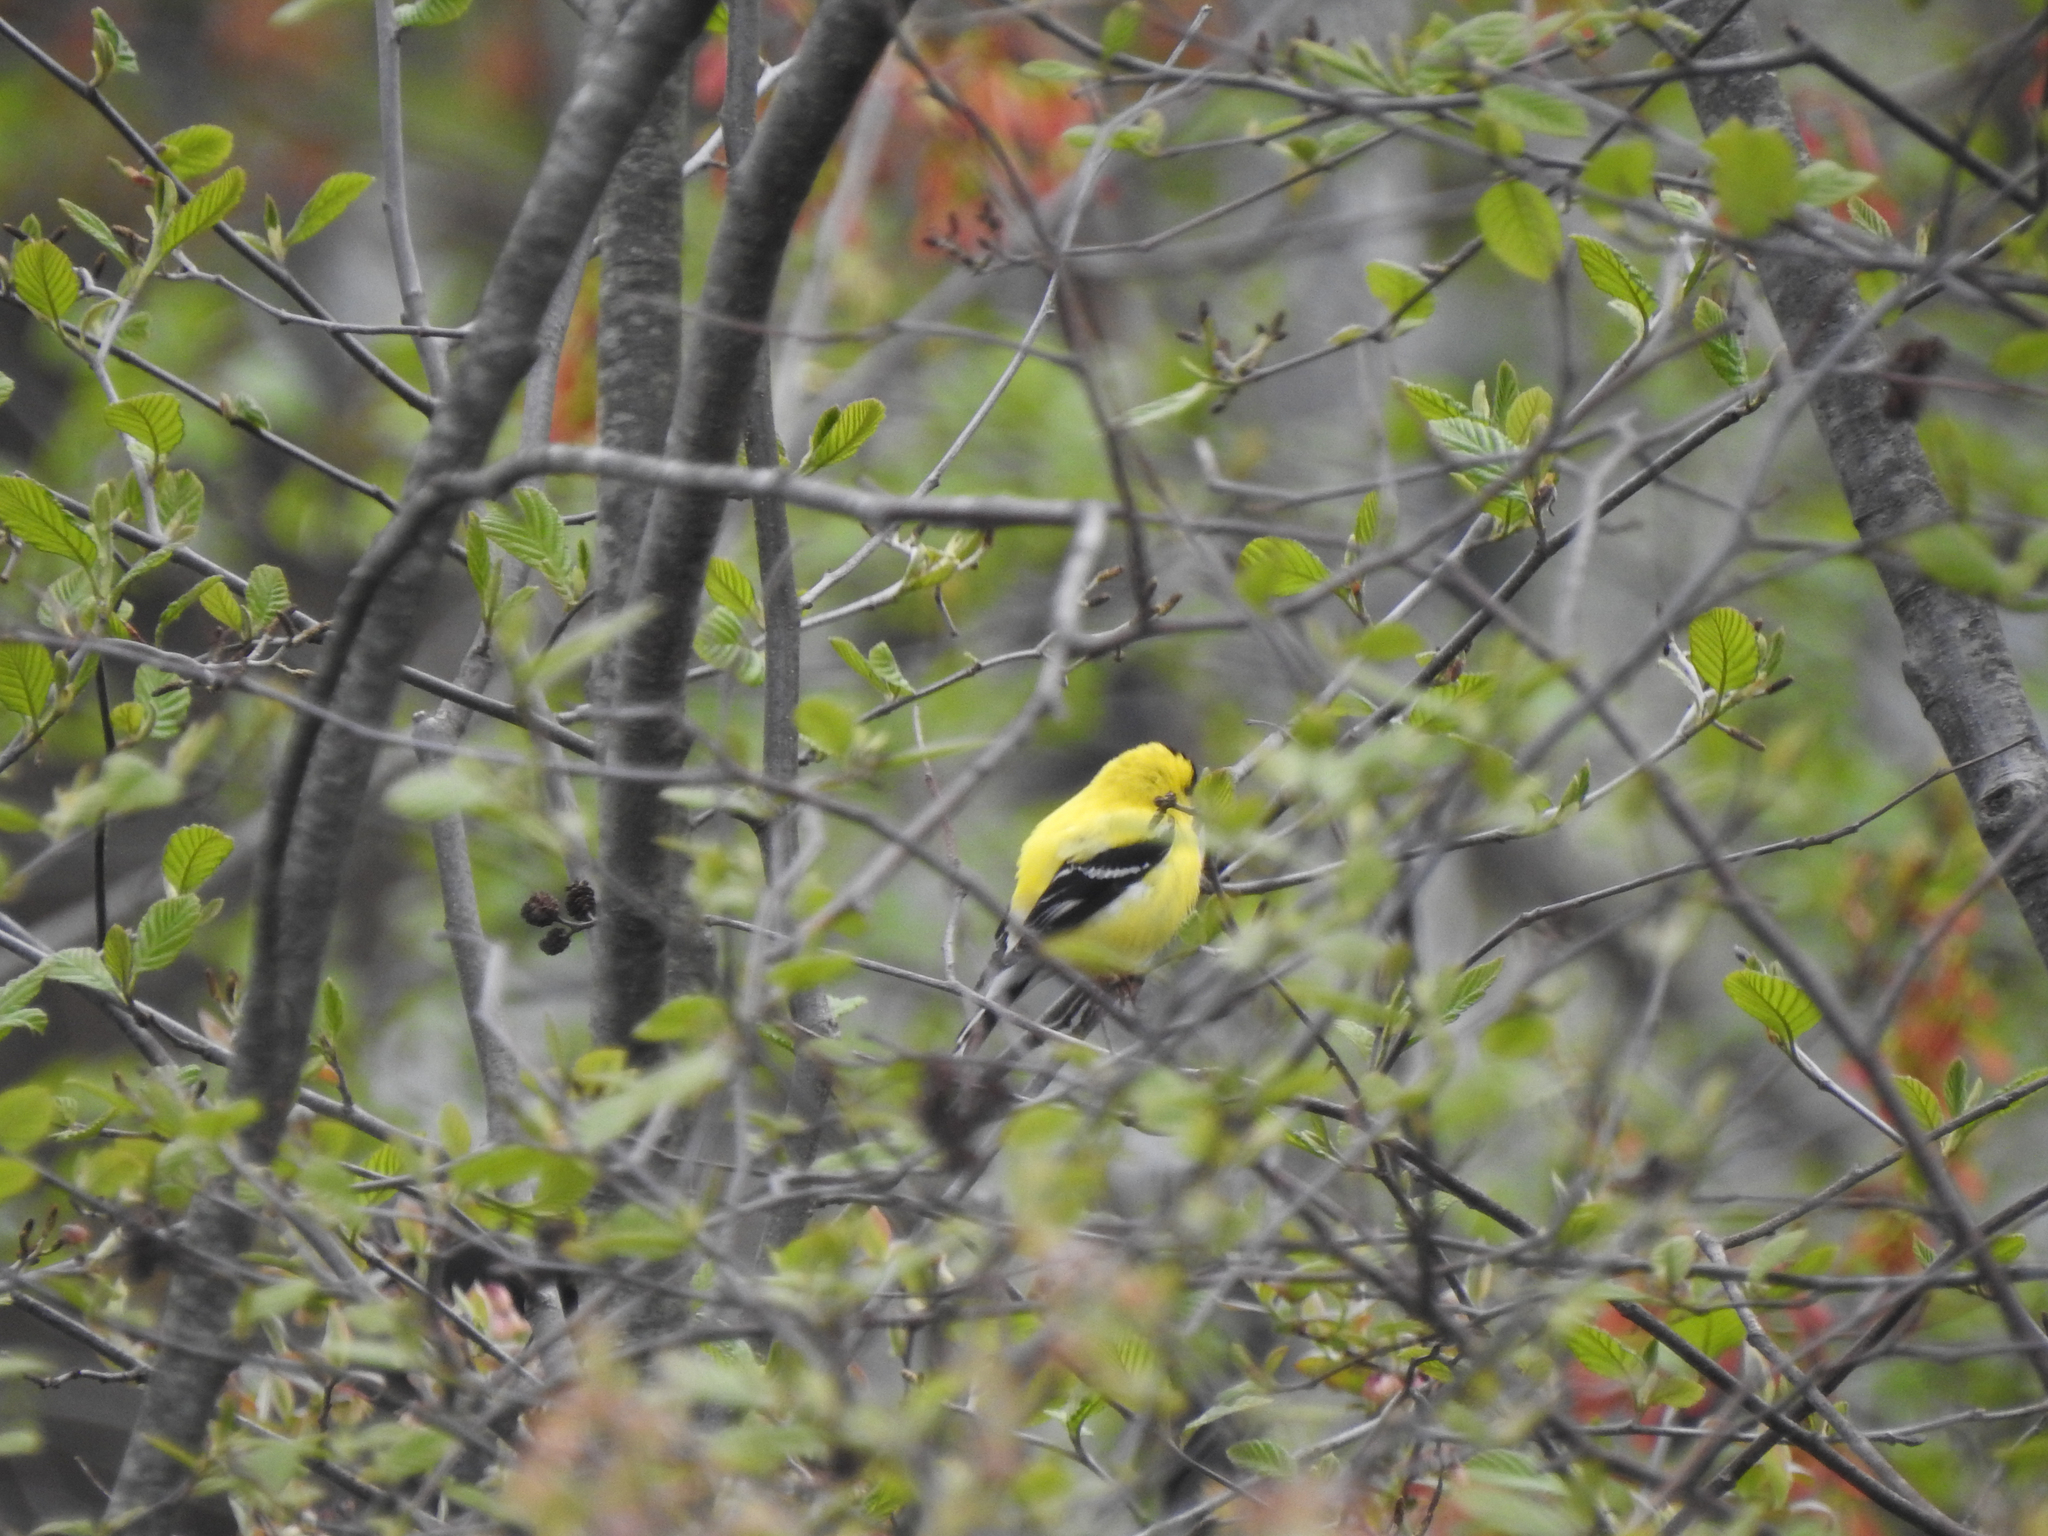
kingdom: Animalia
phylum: Chordata
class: Aves
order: Passeriformes
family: Fringillidae
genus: Spinus
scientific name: Spinus tristis
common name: American goldfinch
